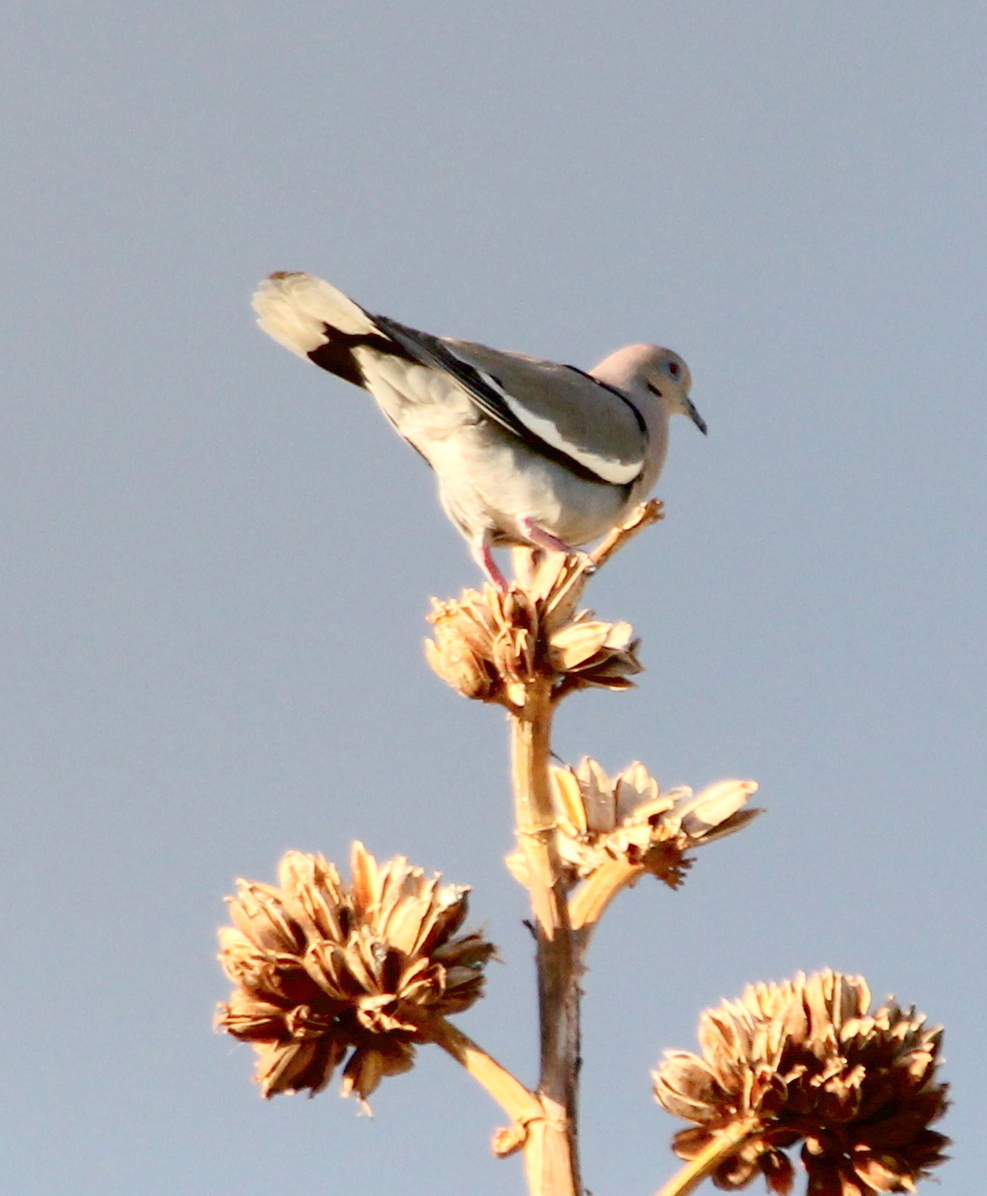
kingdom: Animalia
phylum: Chordata
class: Aves
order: Columbiformes
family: Columbidae
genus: Zenaida
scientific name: Zenaida asiatica
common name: White-winged dove
